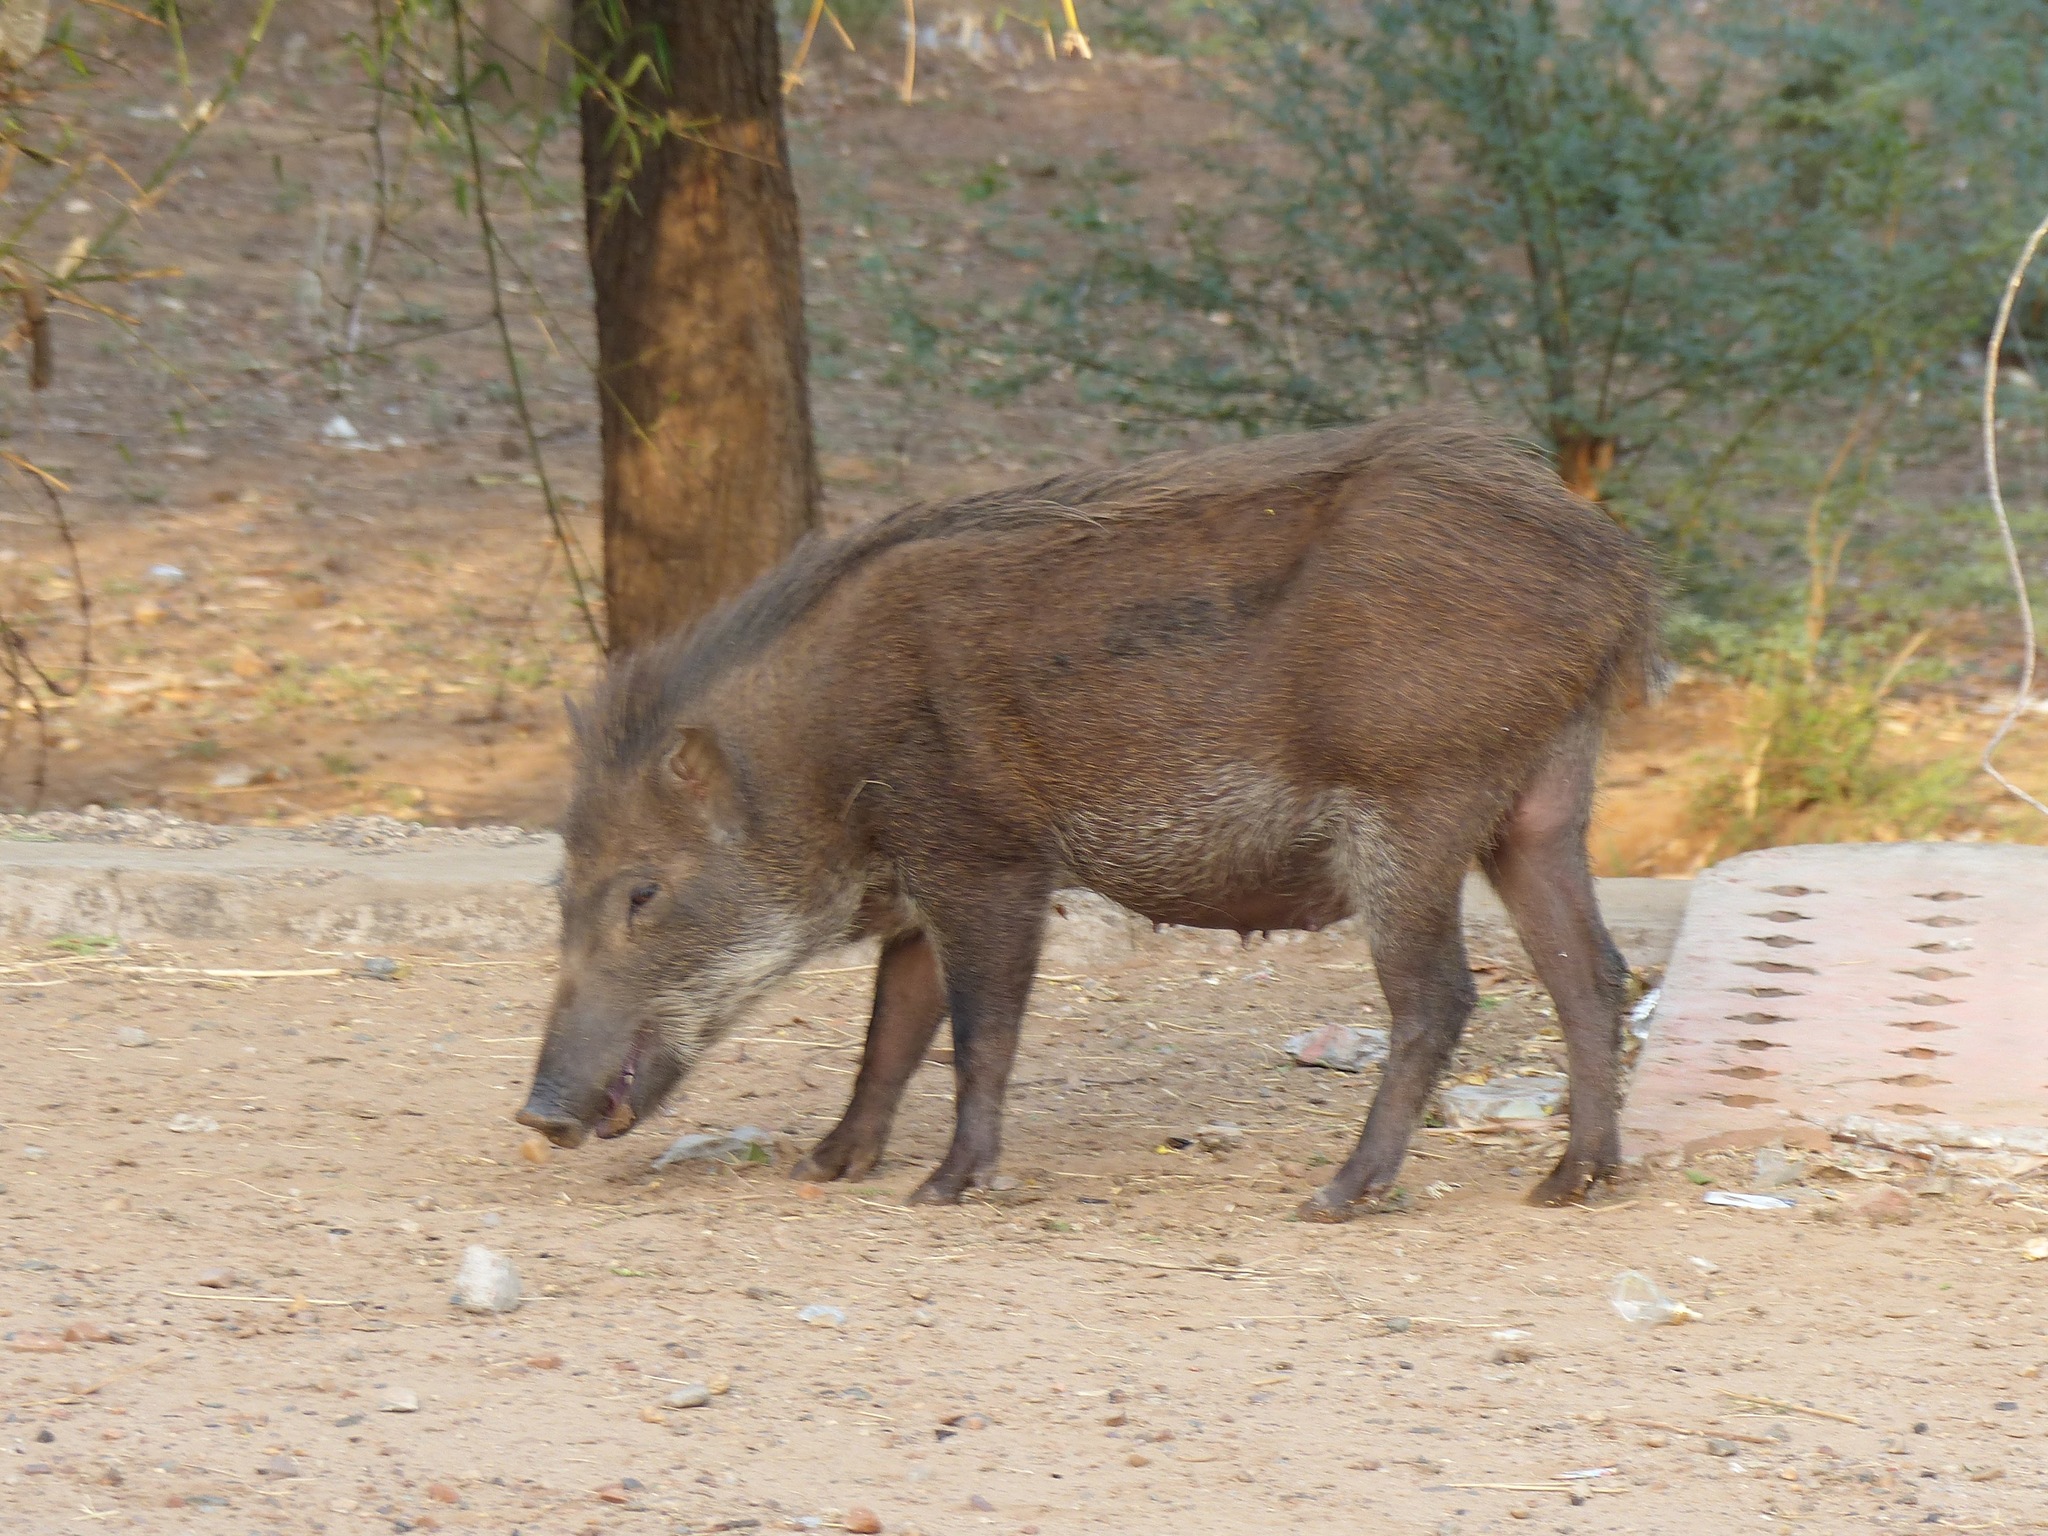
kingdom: Animalia
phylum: Chordata
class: Mammalia
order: Artiodactyla
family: Suidae
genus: Sus
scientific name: Sus scrofa
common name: Wild boar
